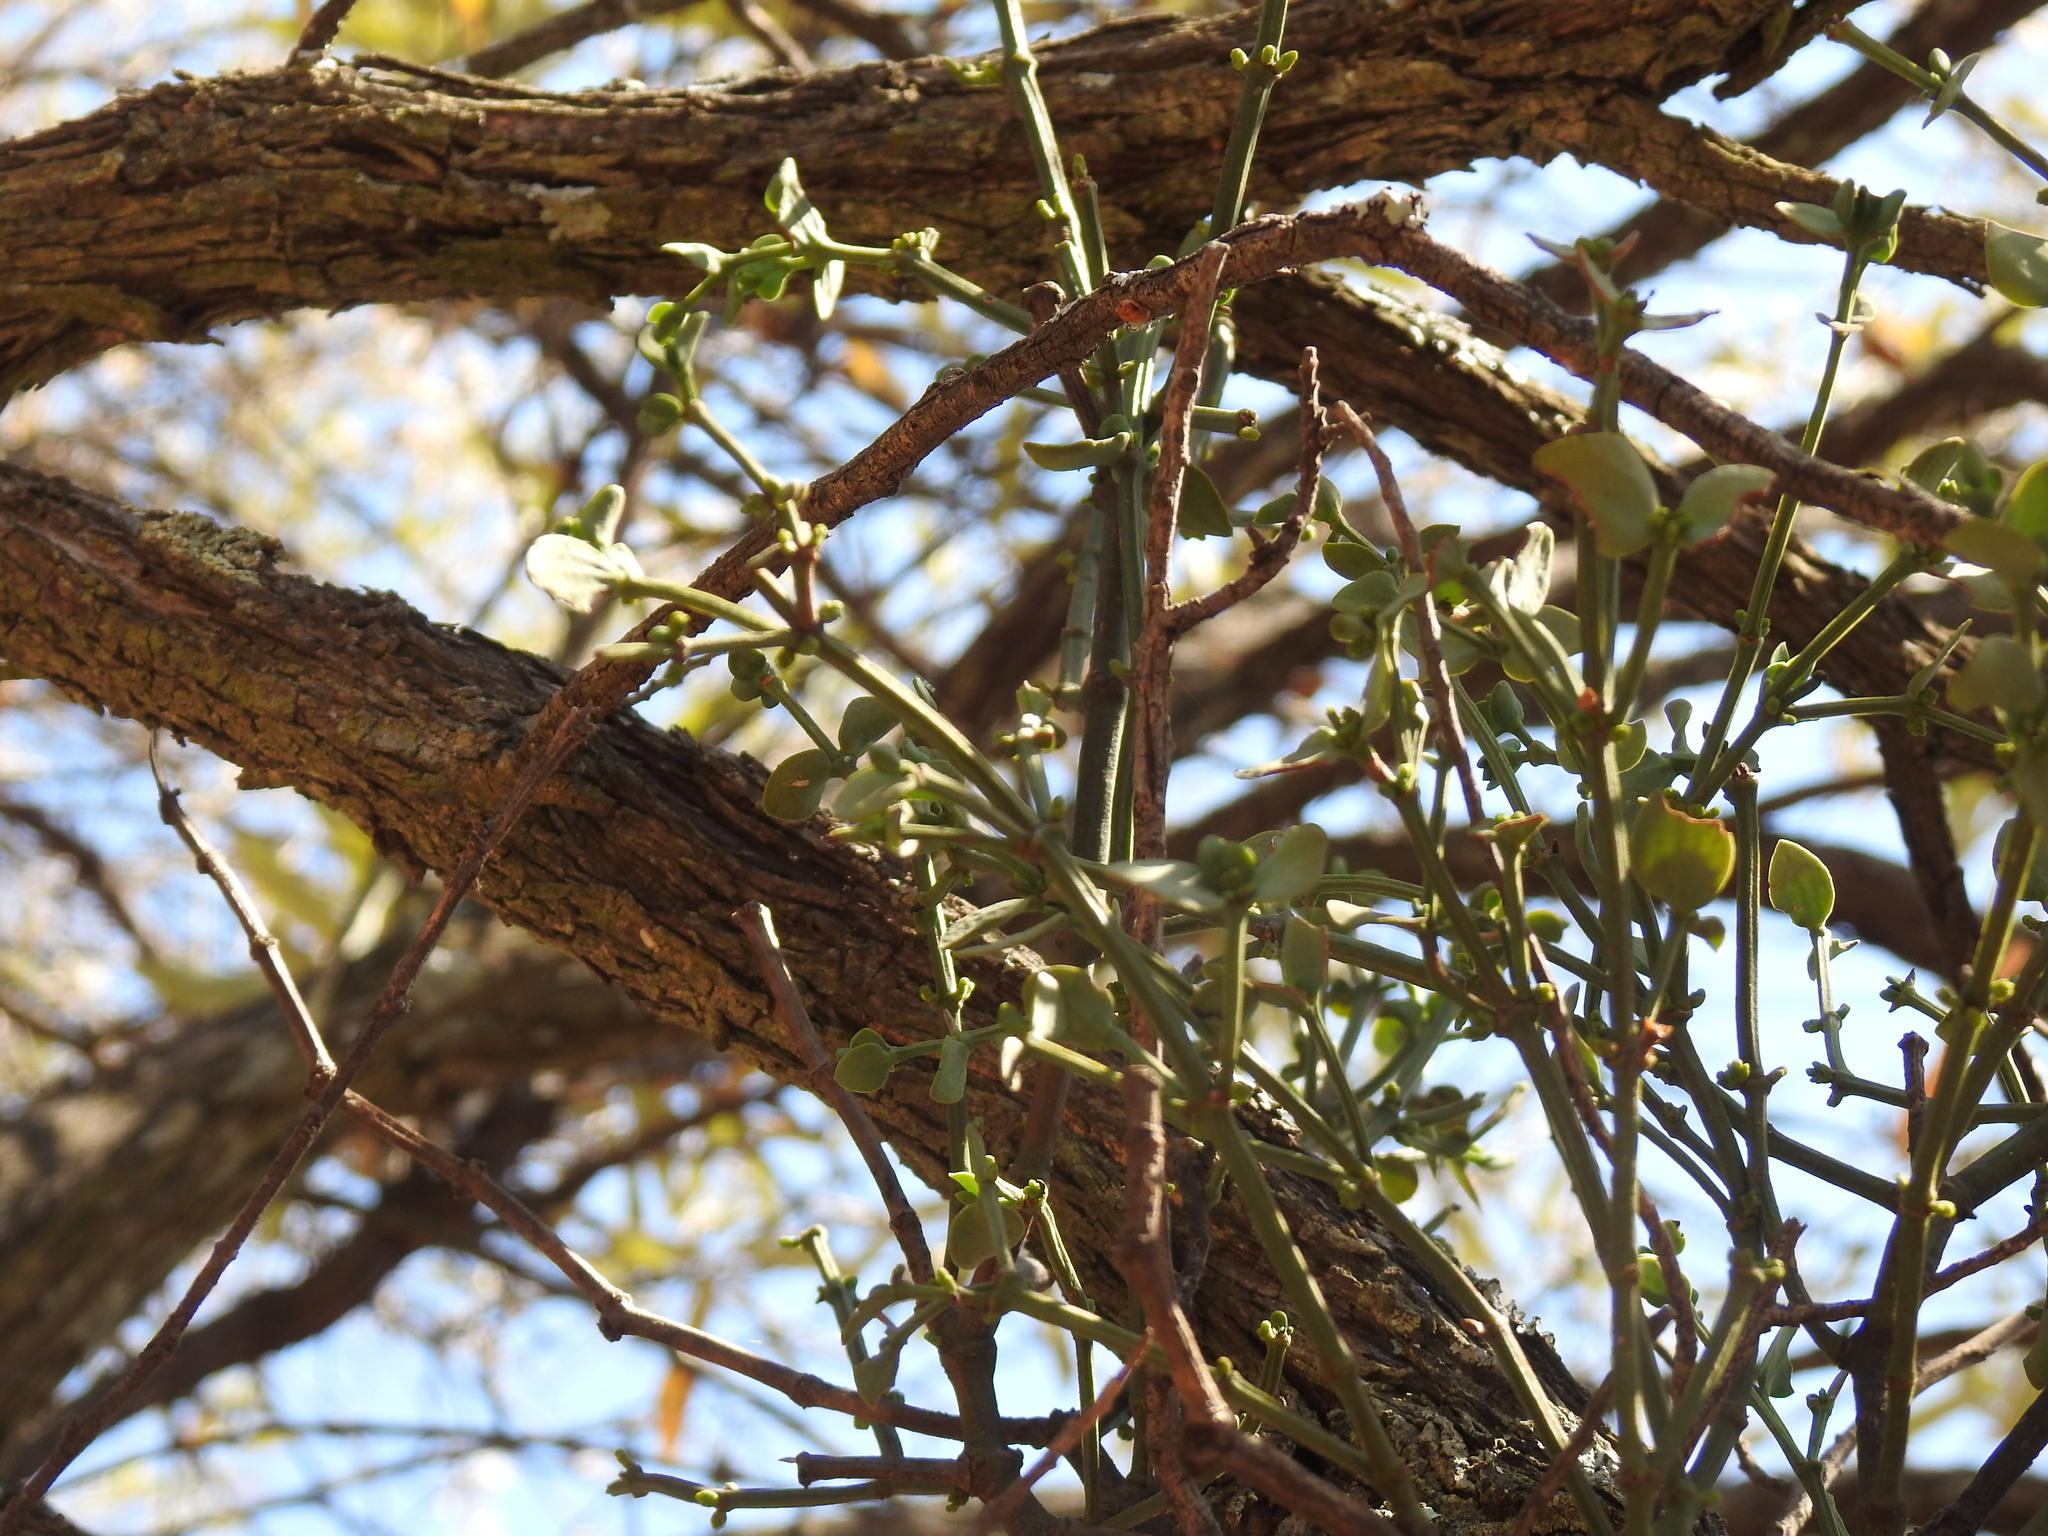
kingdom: Plantae
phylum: Tracheophyta
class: Magnoliopsida
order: Santalales
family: Viscaceae
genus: Viscum
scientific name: Viscum rotundifolium
